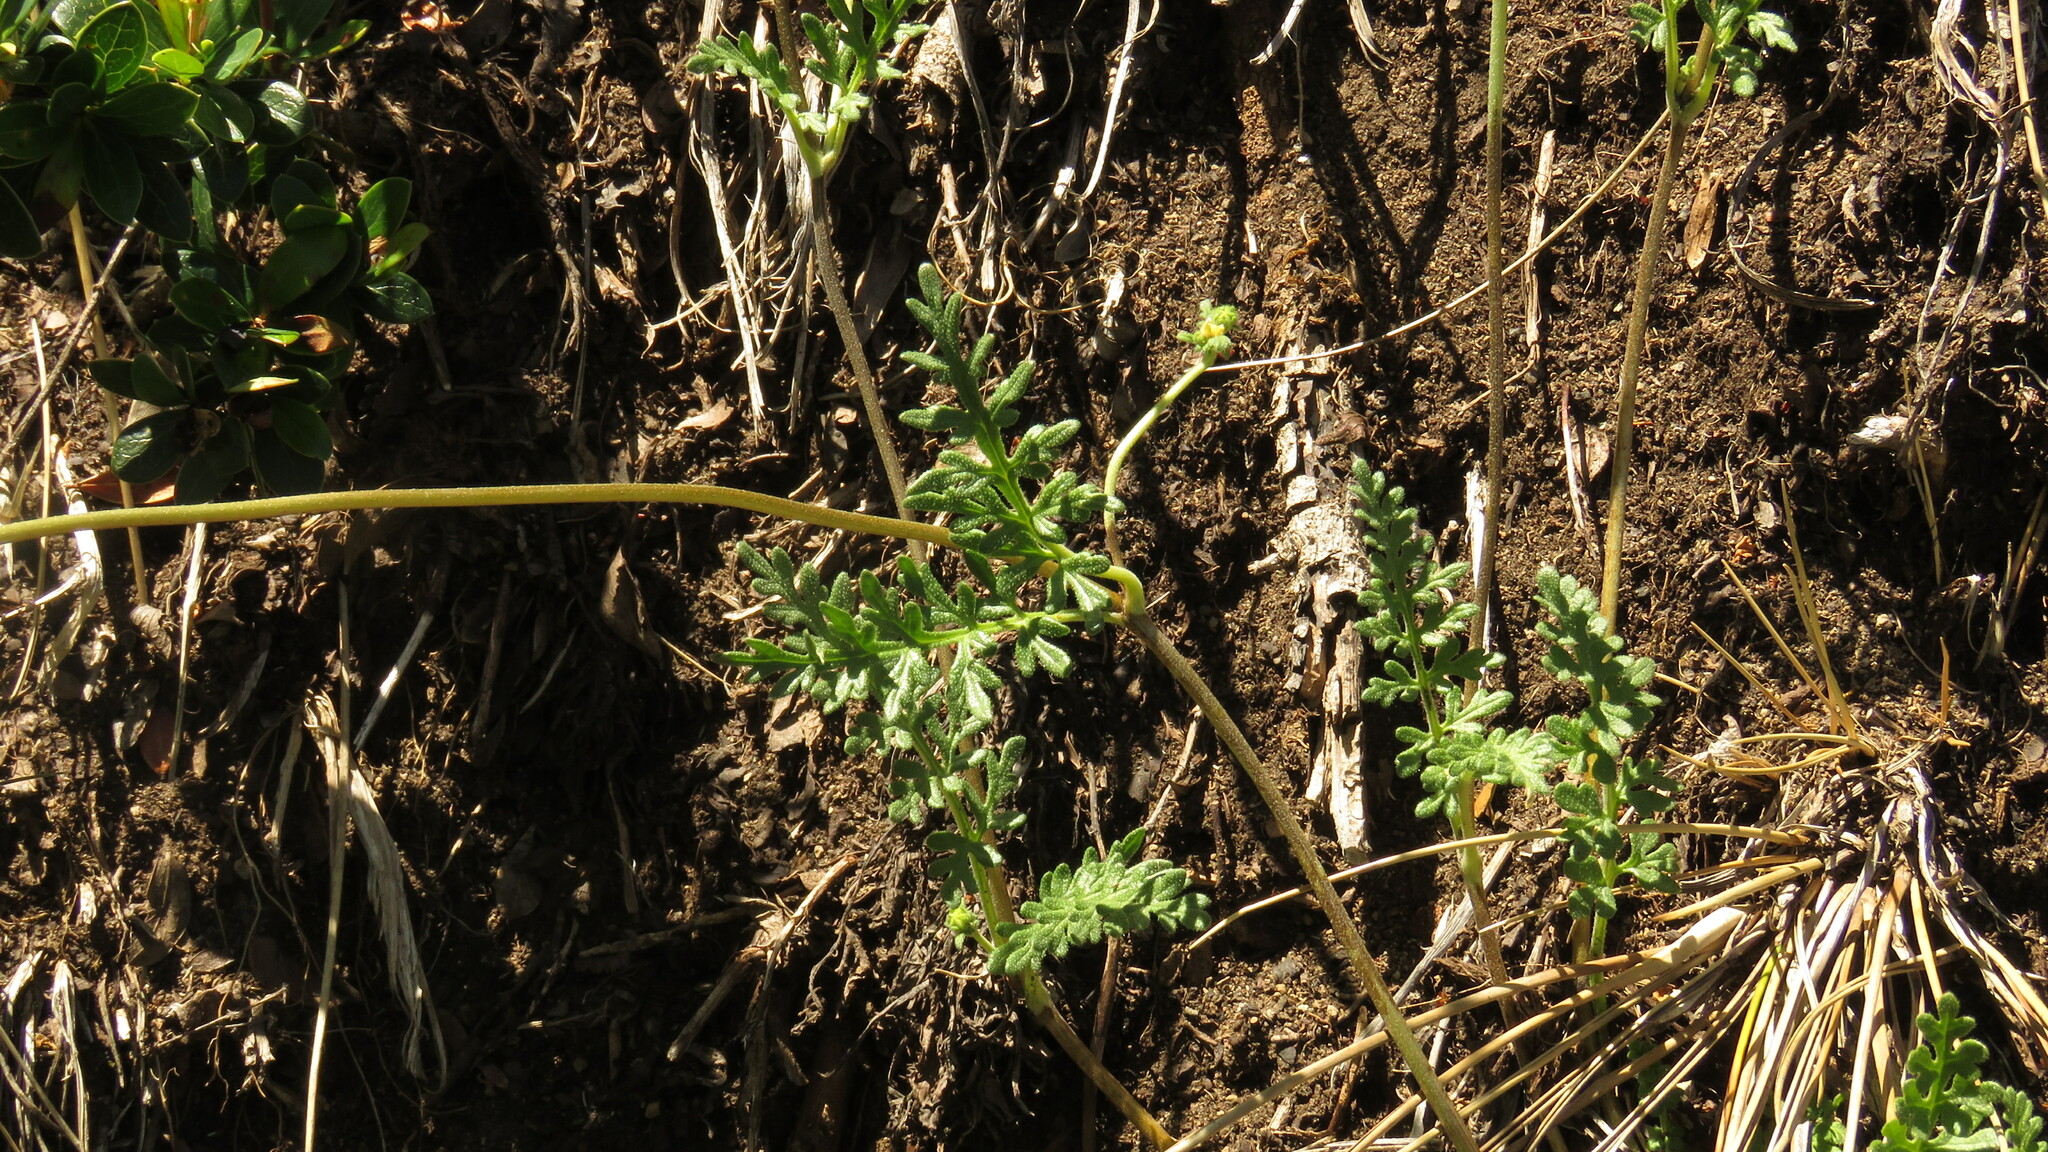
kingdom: Plantae
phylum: Tracheophyta
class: Magnoliopsida
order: Cornales
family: Loasaceae
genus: Pinnasa
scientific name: Pinnasa bergii
